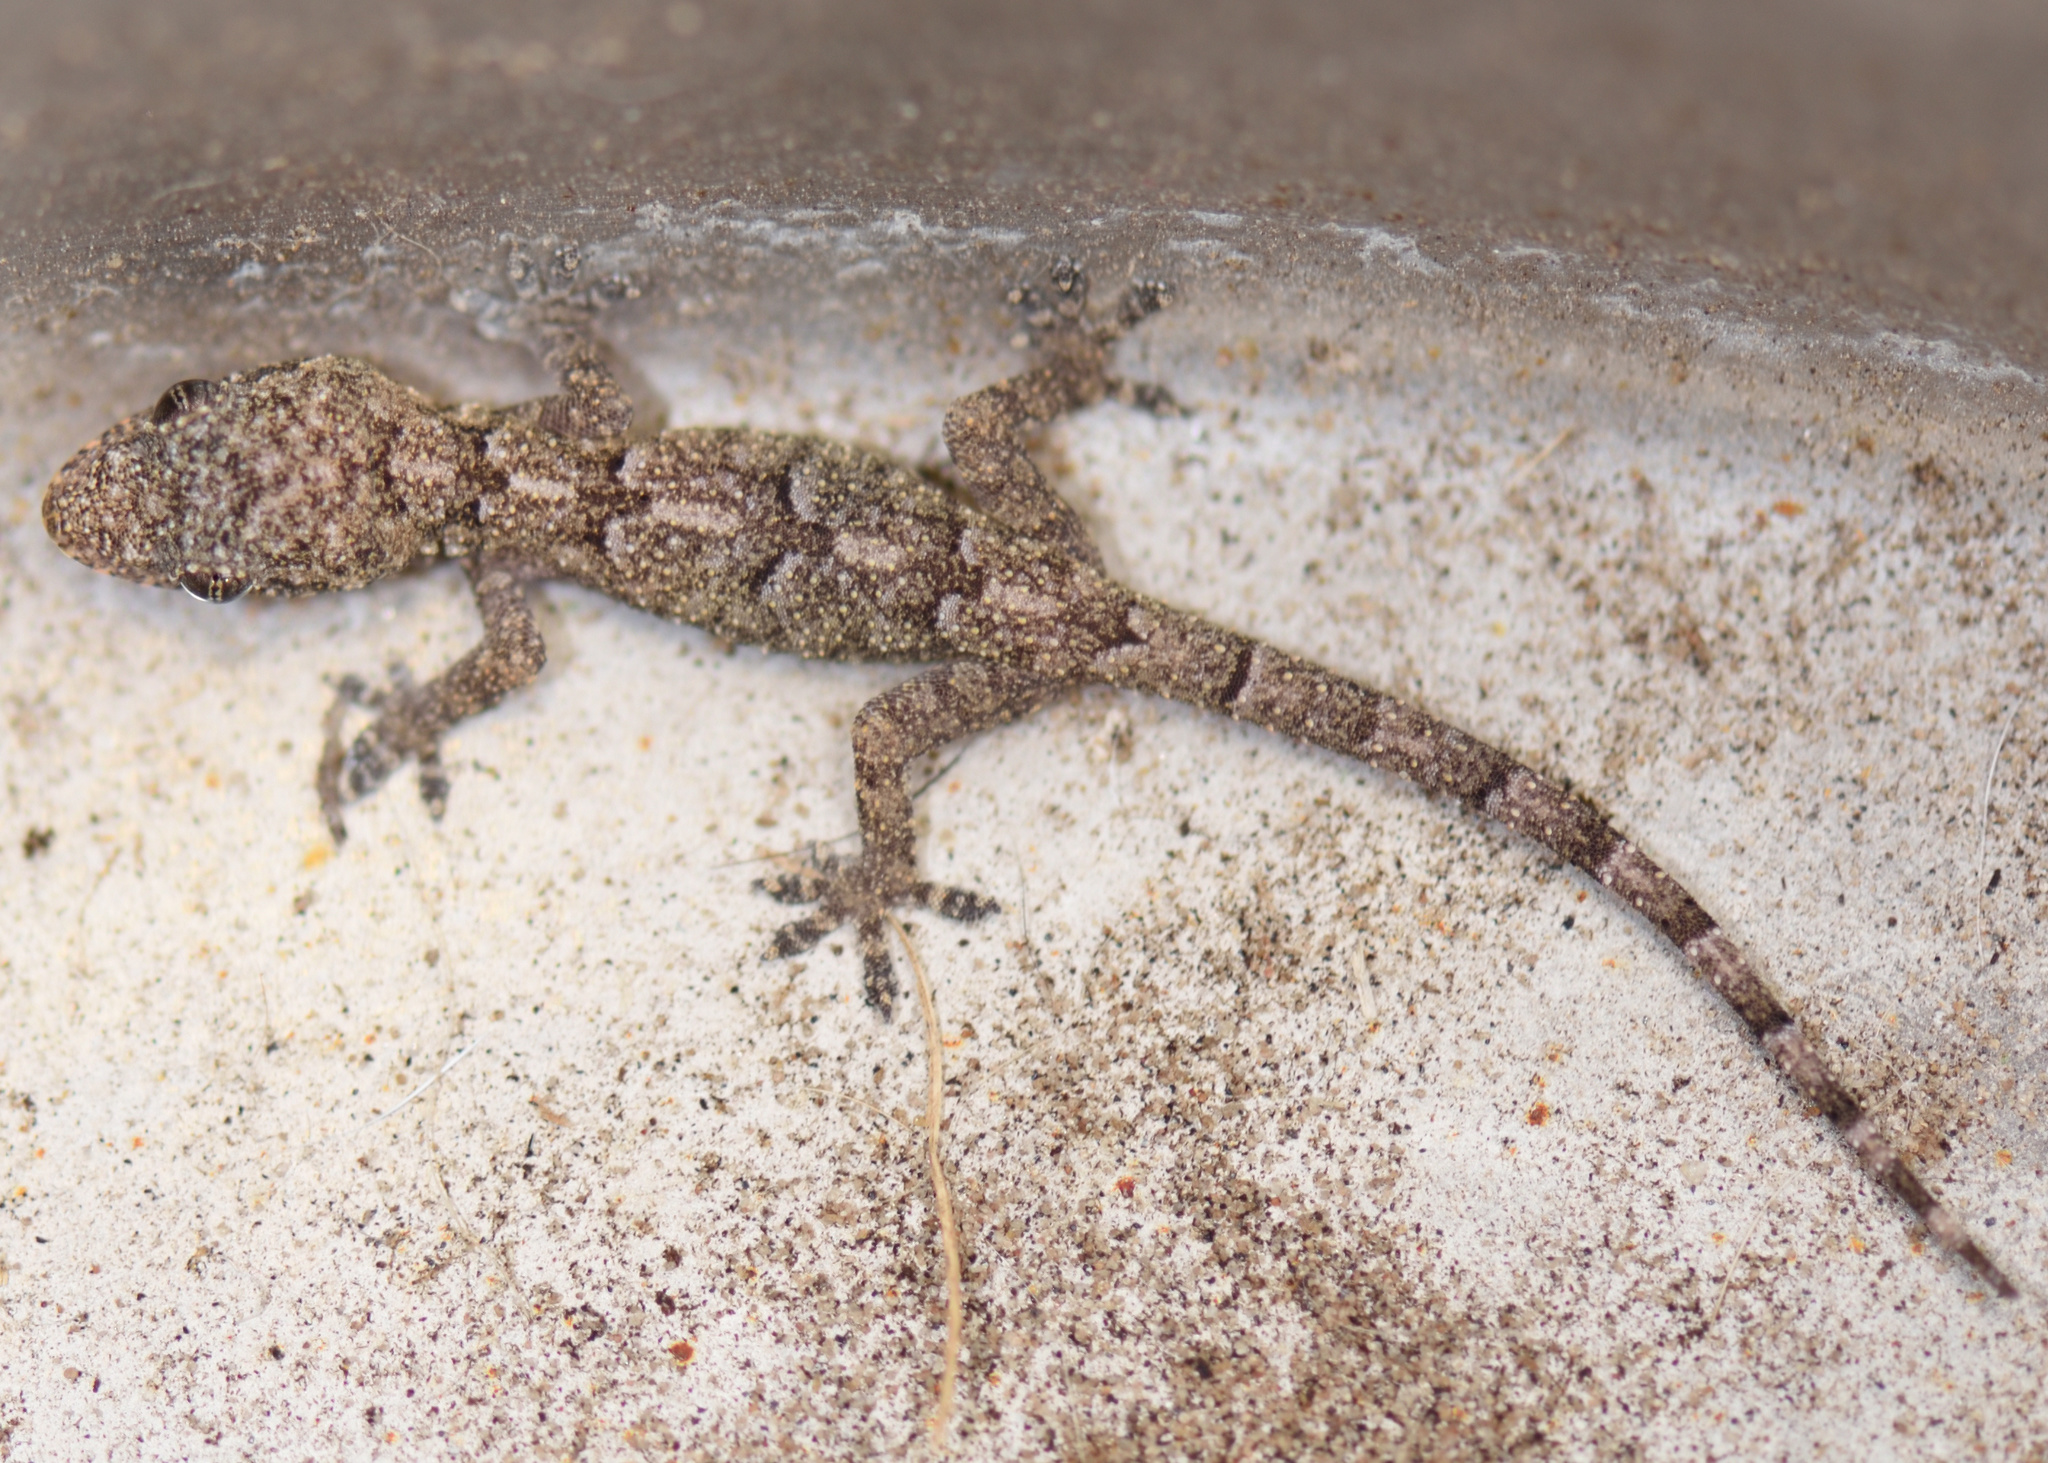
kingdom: Animalia
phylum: Chordata
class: Squamata
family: Gekkonidae
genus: Hemidactylus
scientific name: Hemidactylus mabouia
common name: House gecko
